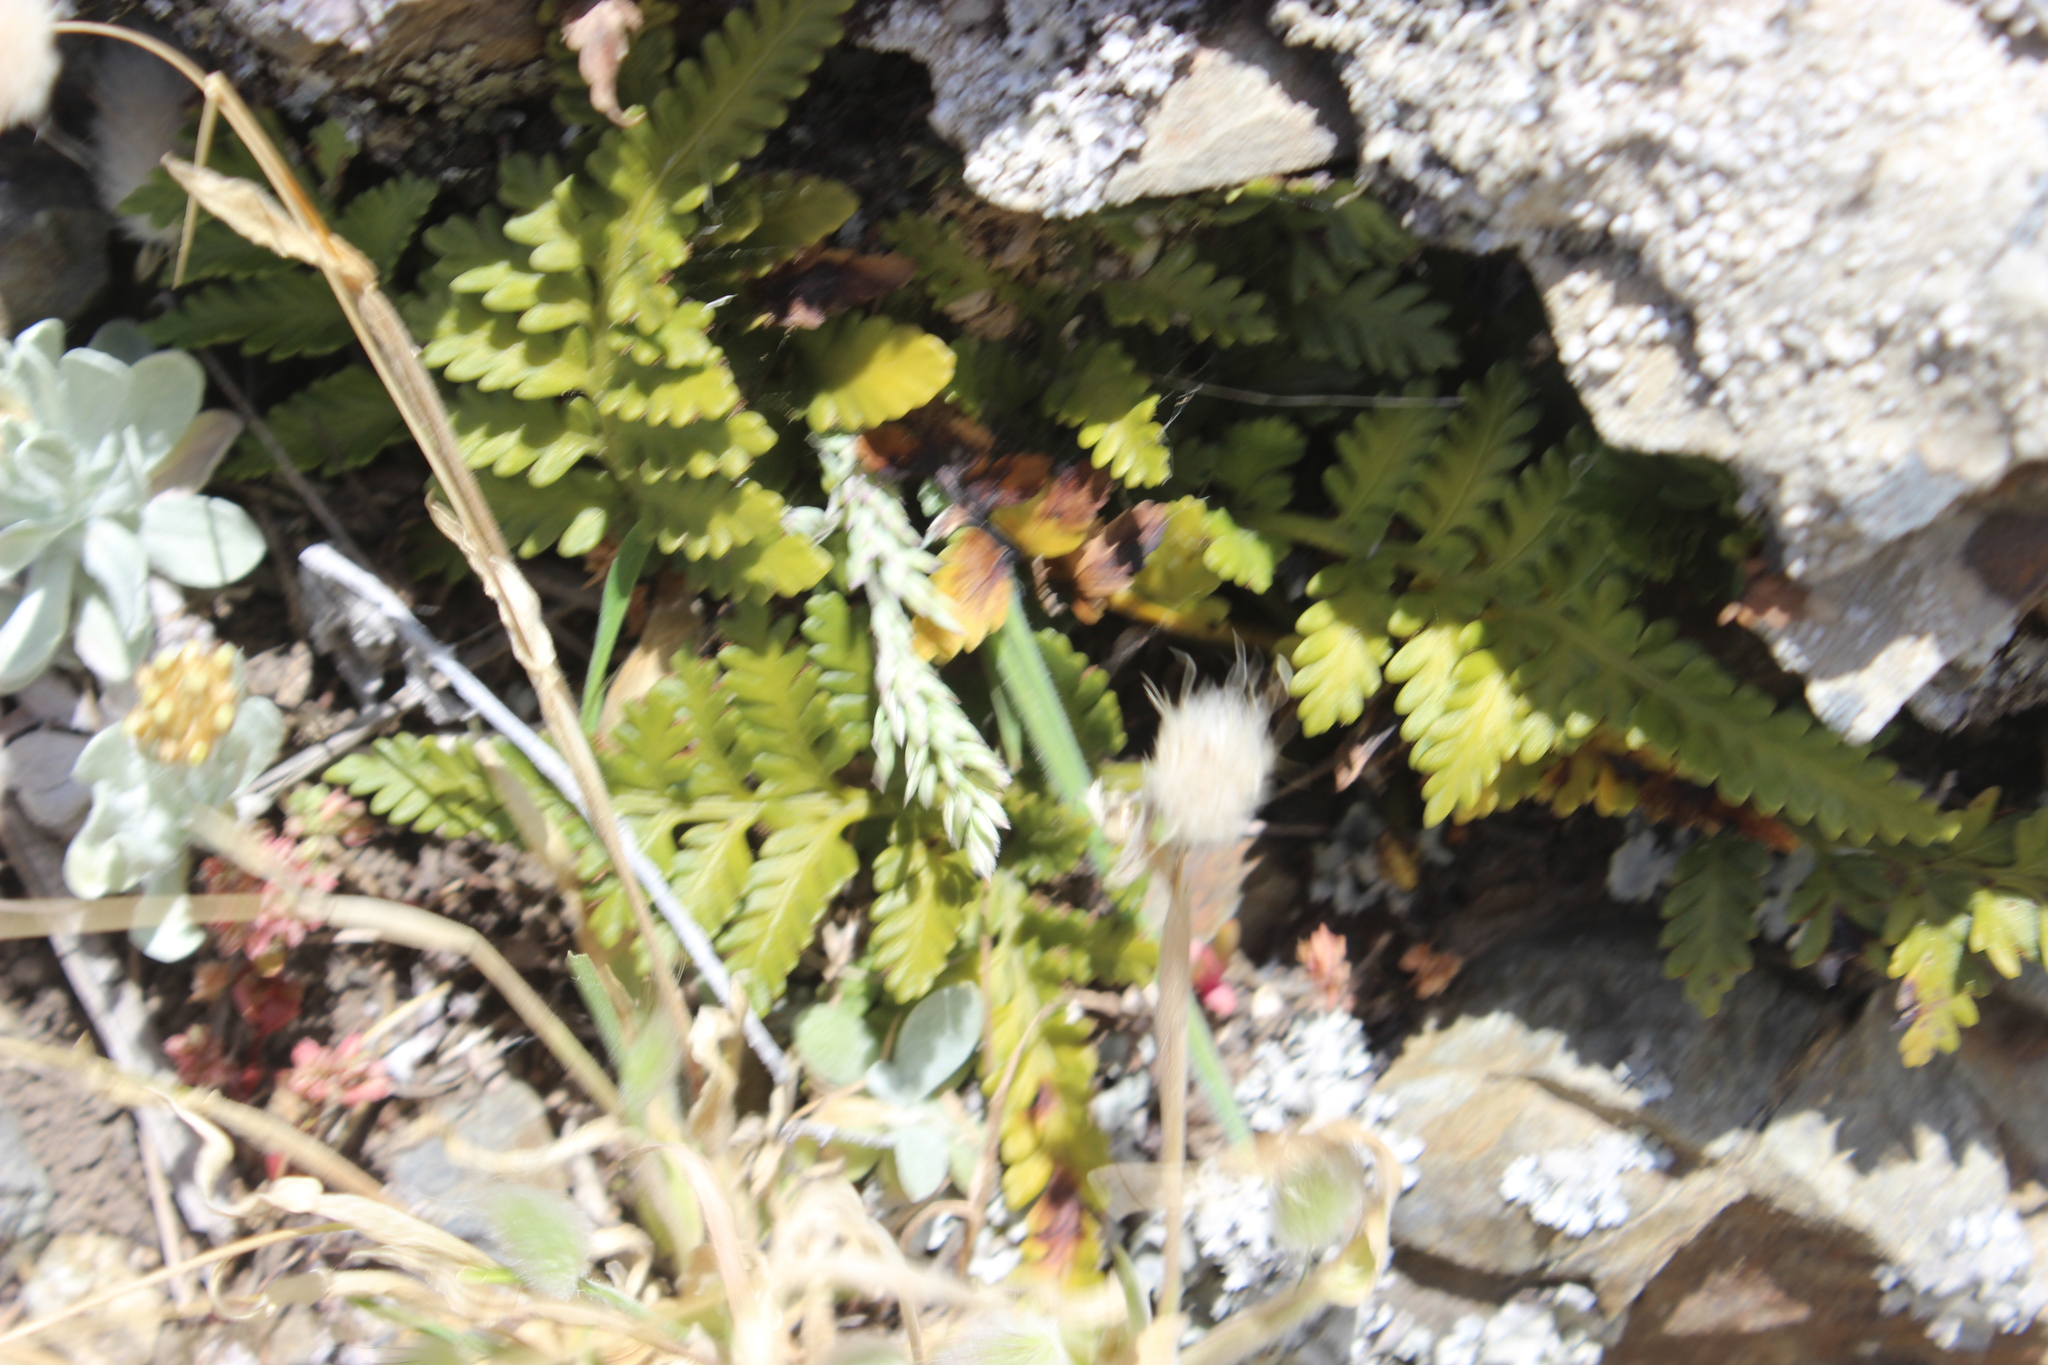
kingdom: Plantae
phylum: Tracheophyta
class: Polypodiopsida
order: Polypodiales
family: Aspleniaceae
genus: Asplenium
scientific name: Asplenium appendiculatum
